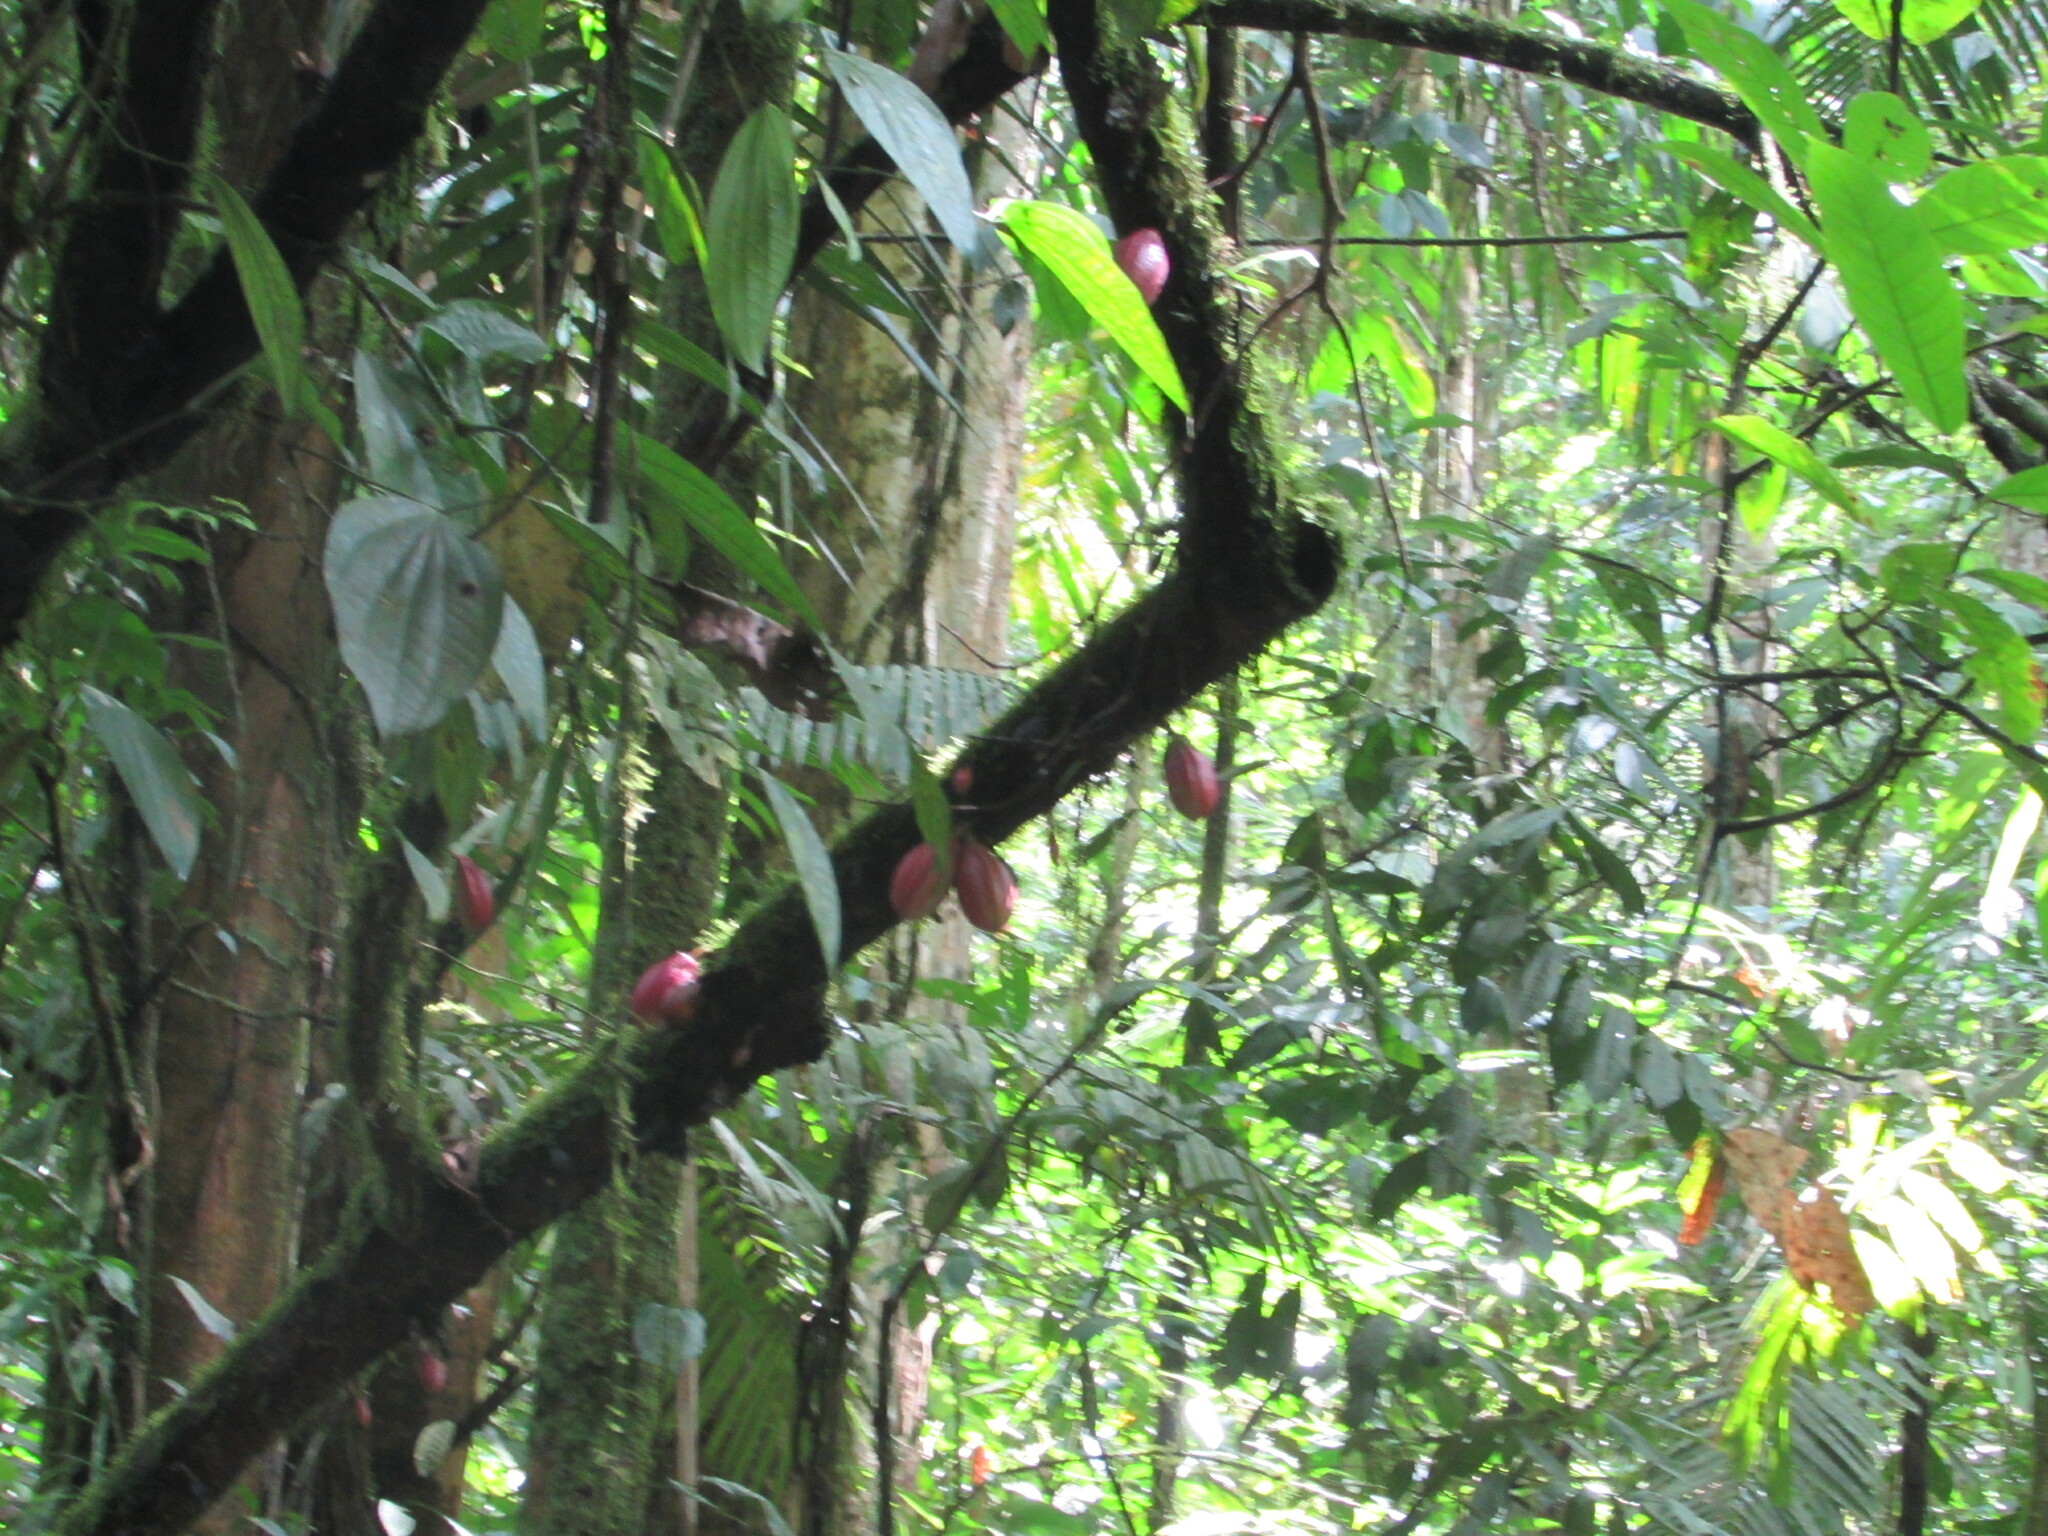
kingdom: Plantae
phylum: Tracheophyta
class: Magnoliopsida
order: Malvales
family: Malvaceae
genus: Theobroma
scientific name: Theobroma cacao
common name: Cocoa
